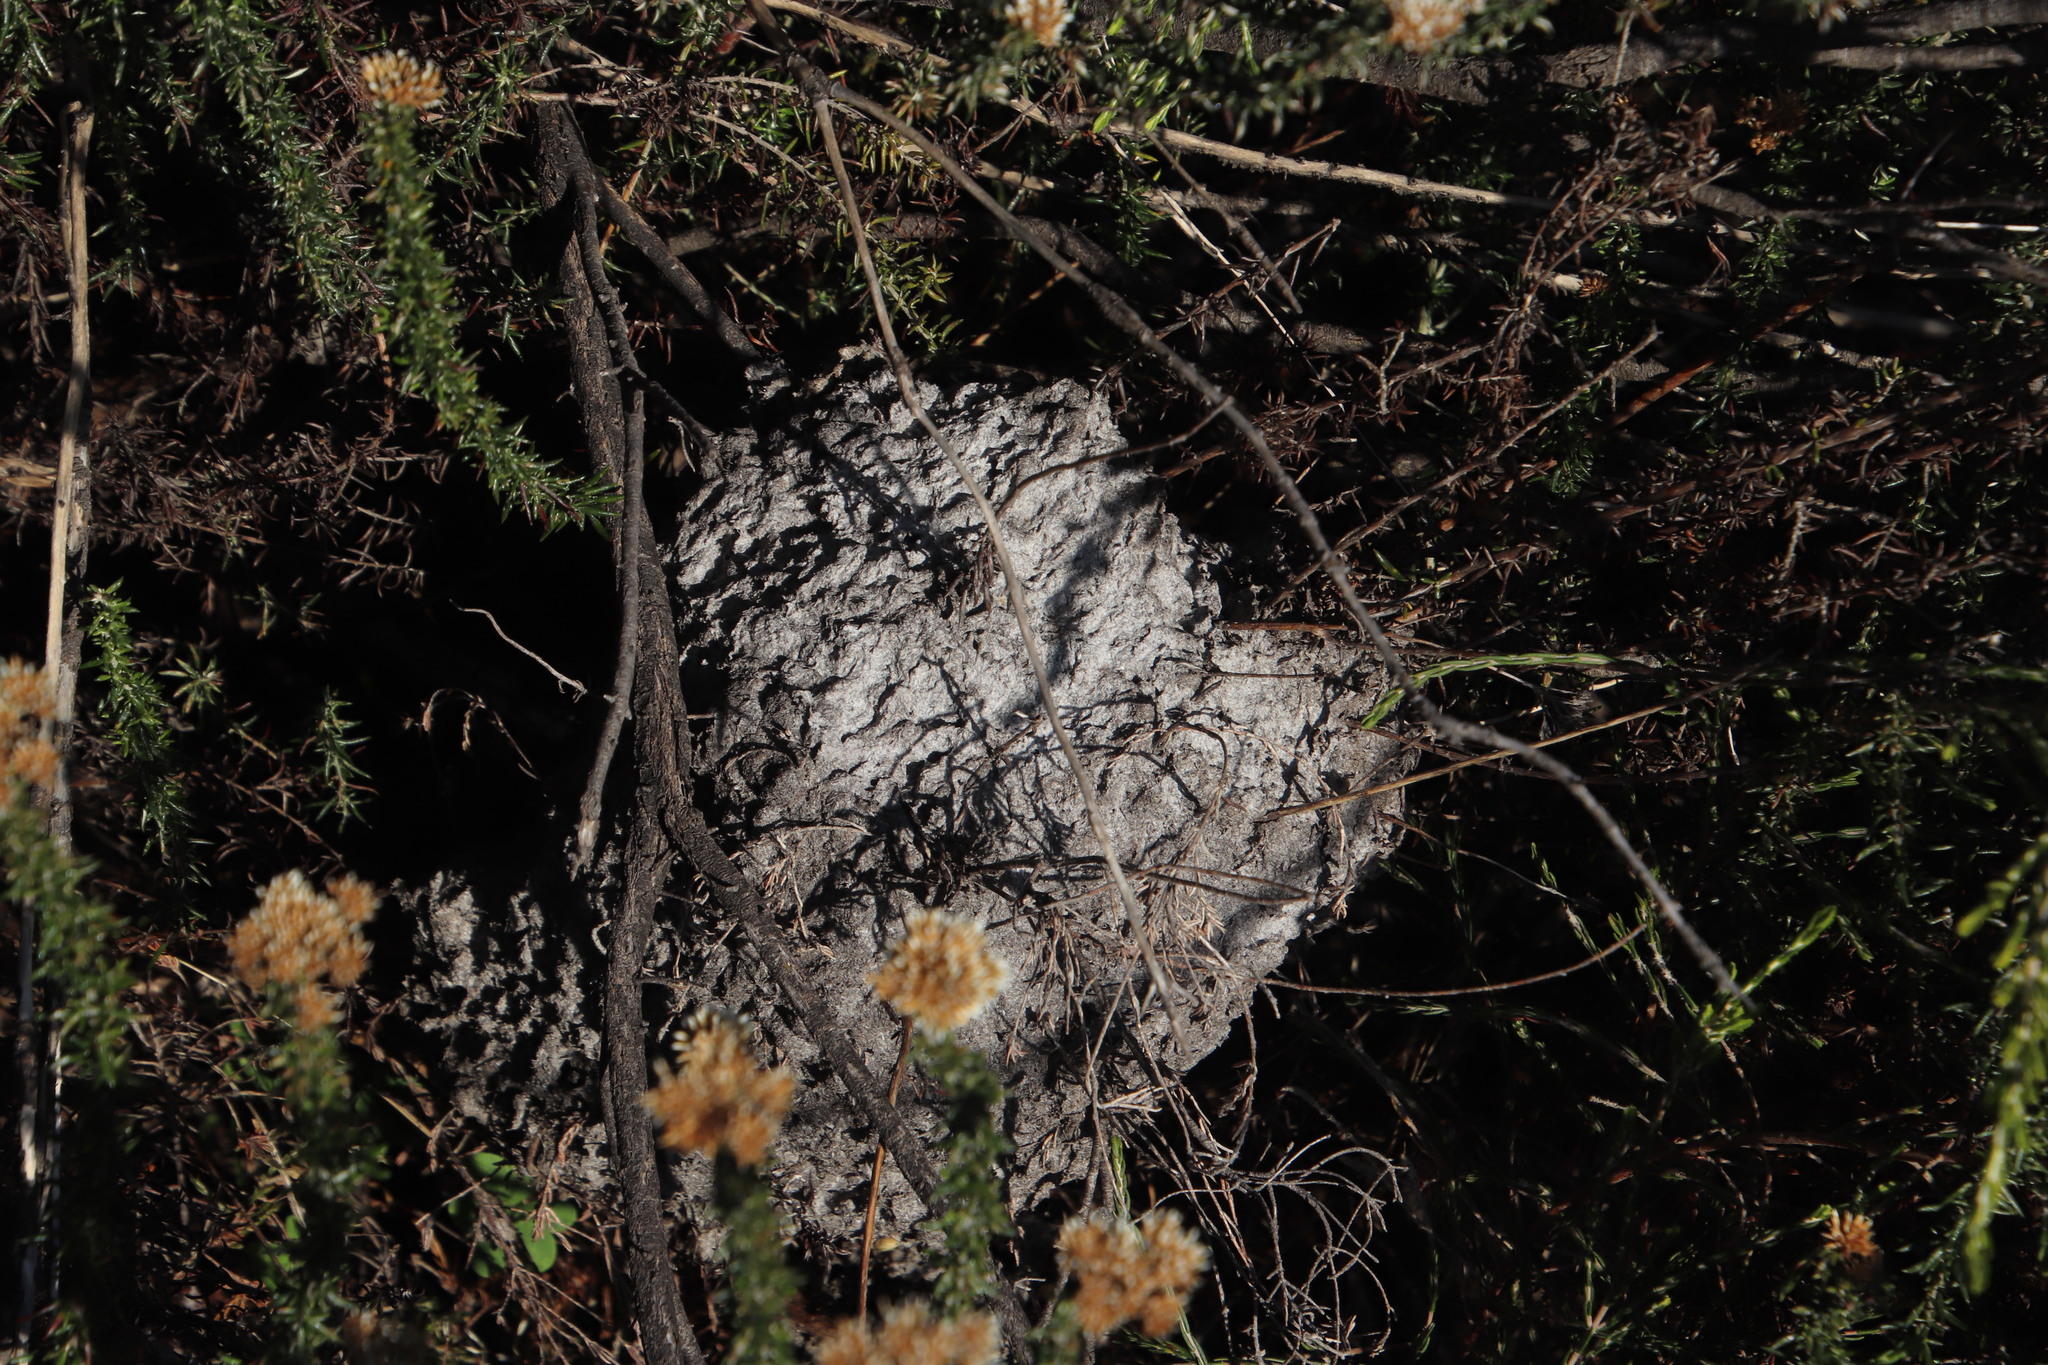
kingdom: Animalia
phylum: Arthropoda
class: Insecta
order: Hymenoptera
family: Formicidae
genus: Crematogaster
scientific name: Crematogaster peringueyi
